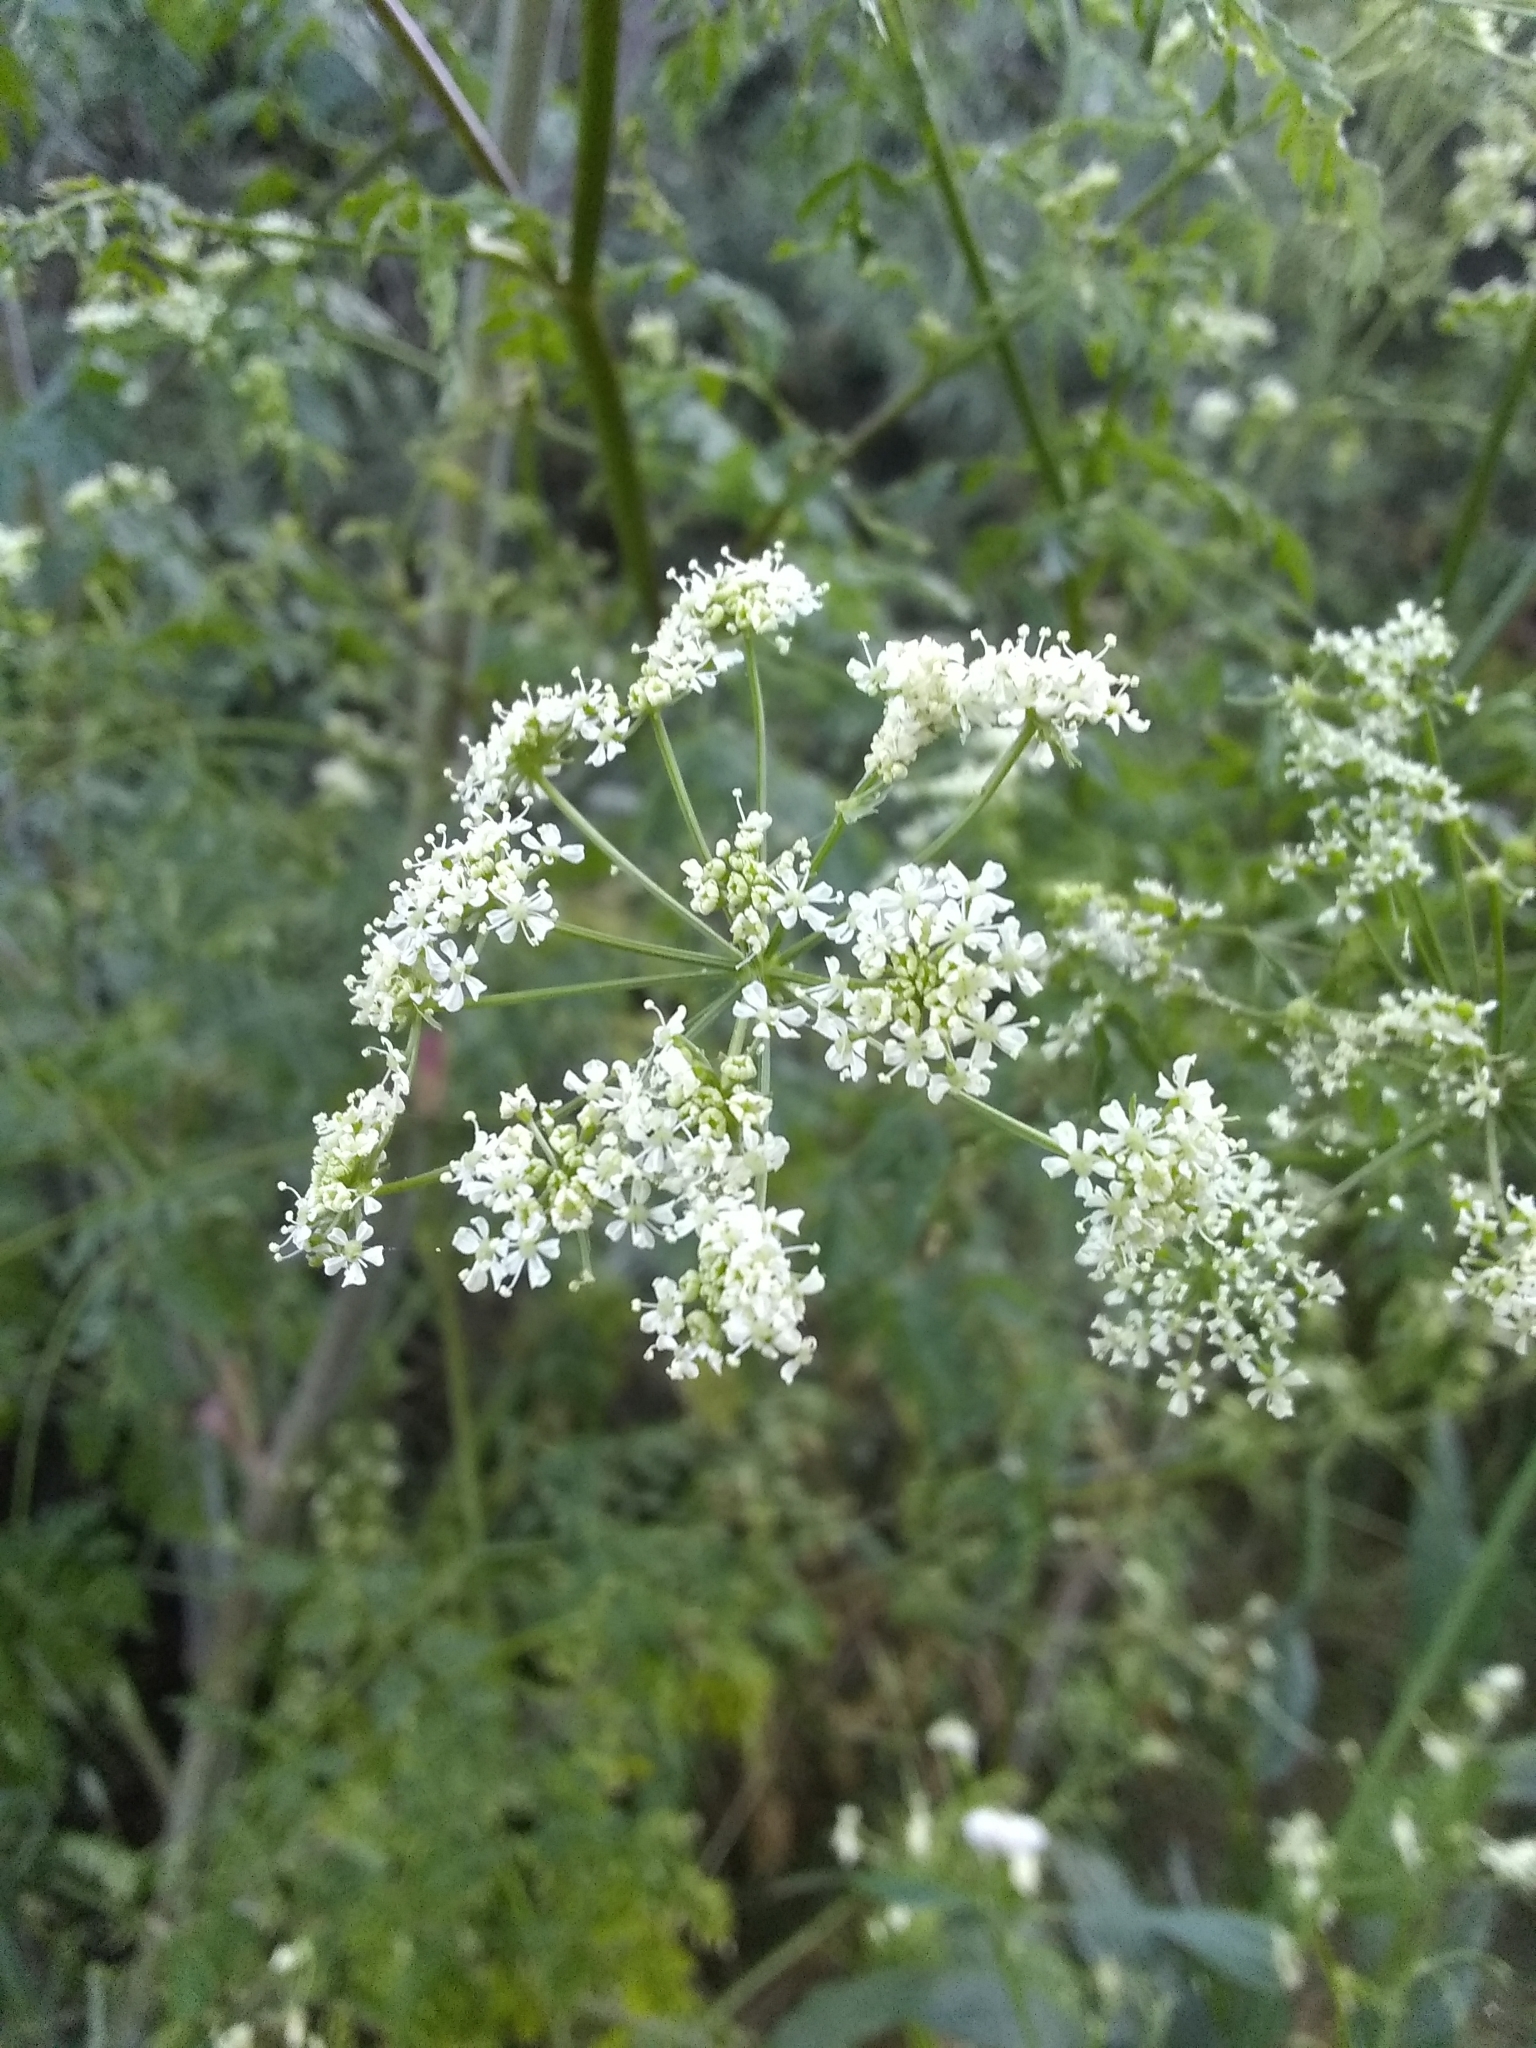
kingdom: Plantae
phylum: Tracheophyta
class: Magnoliopsida
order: Apiales
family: Apiaceae
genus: Conium
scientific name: Conium maculatum
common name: Hemlock
